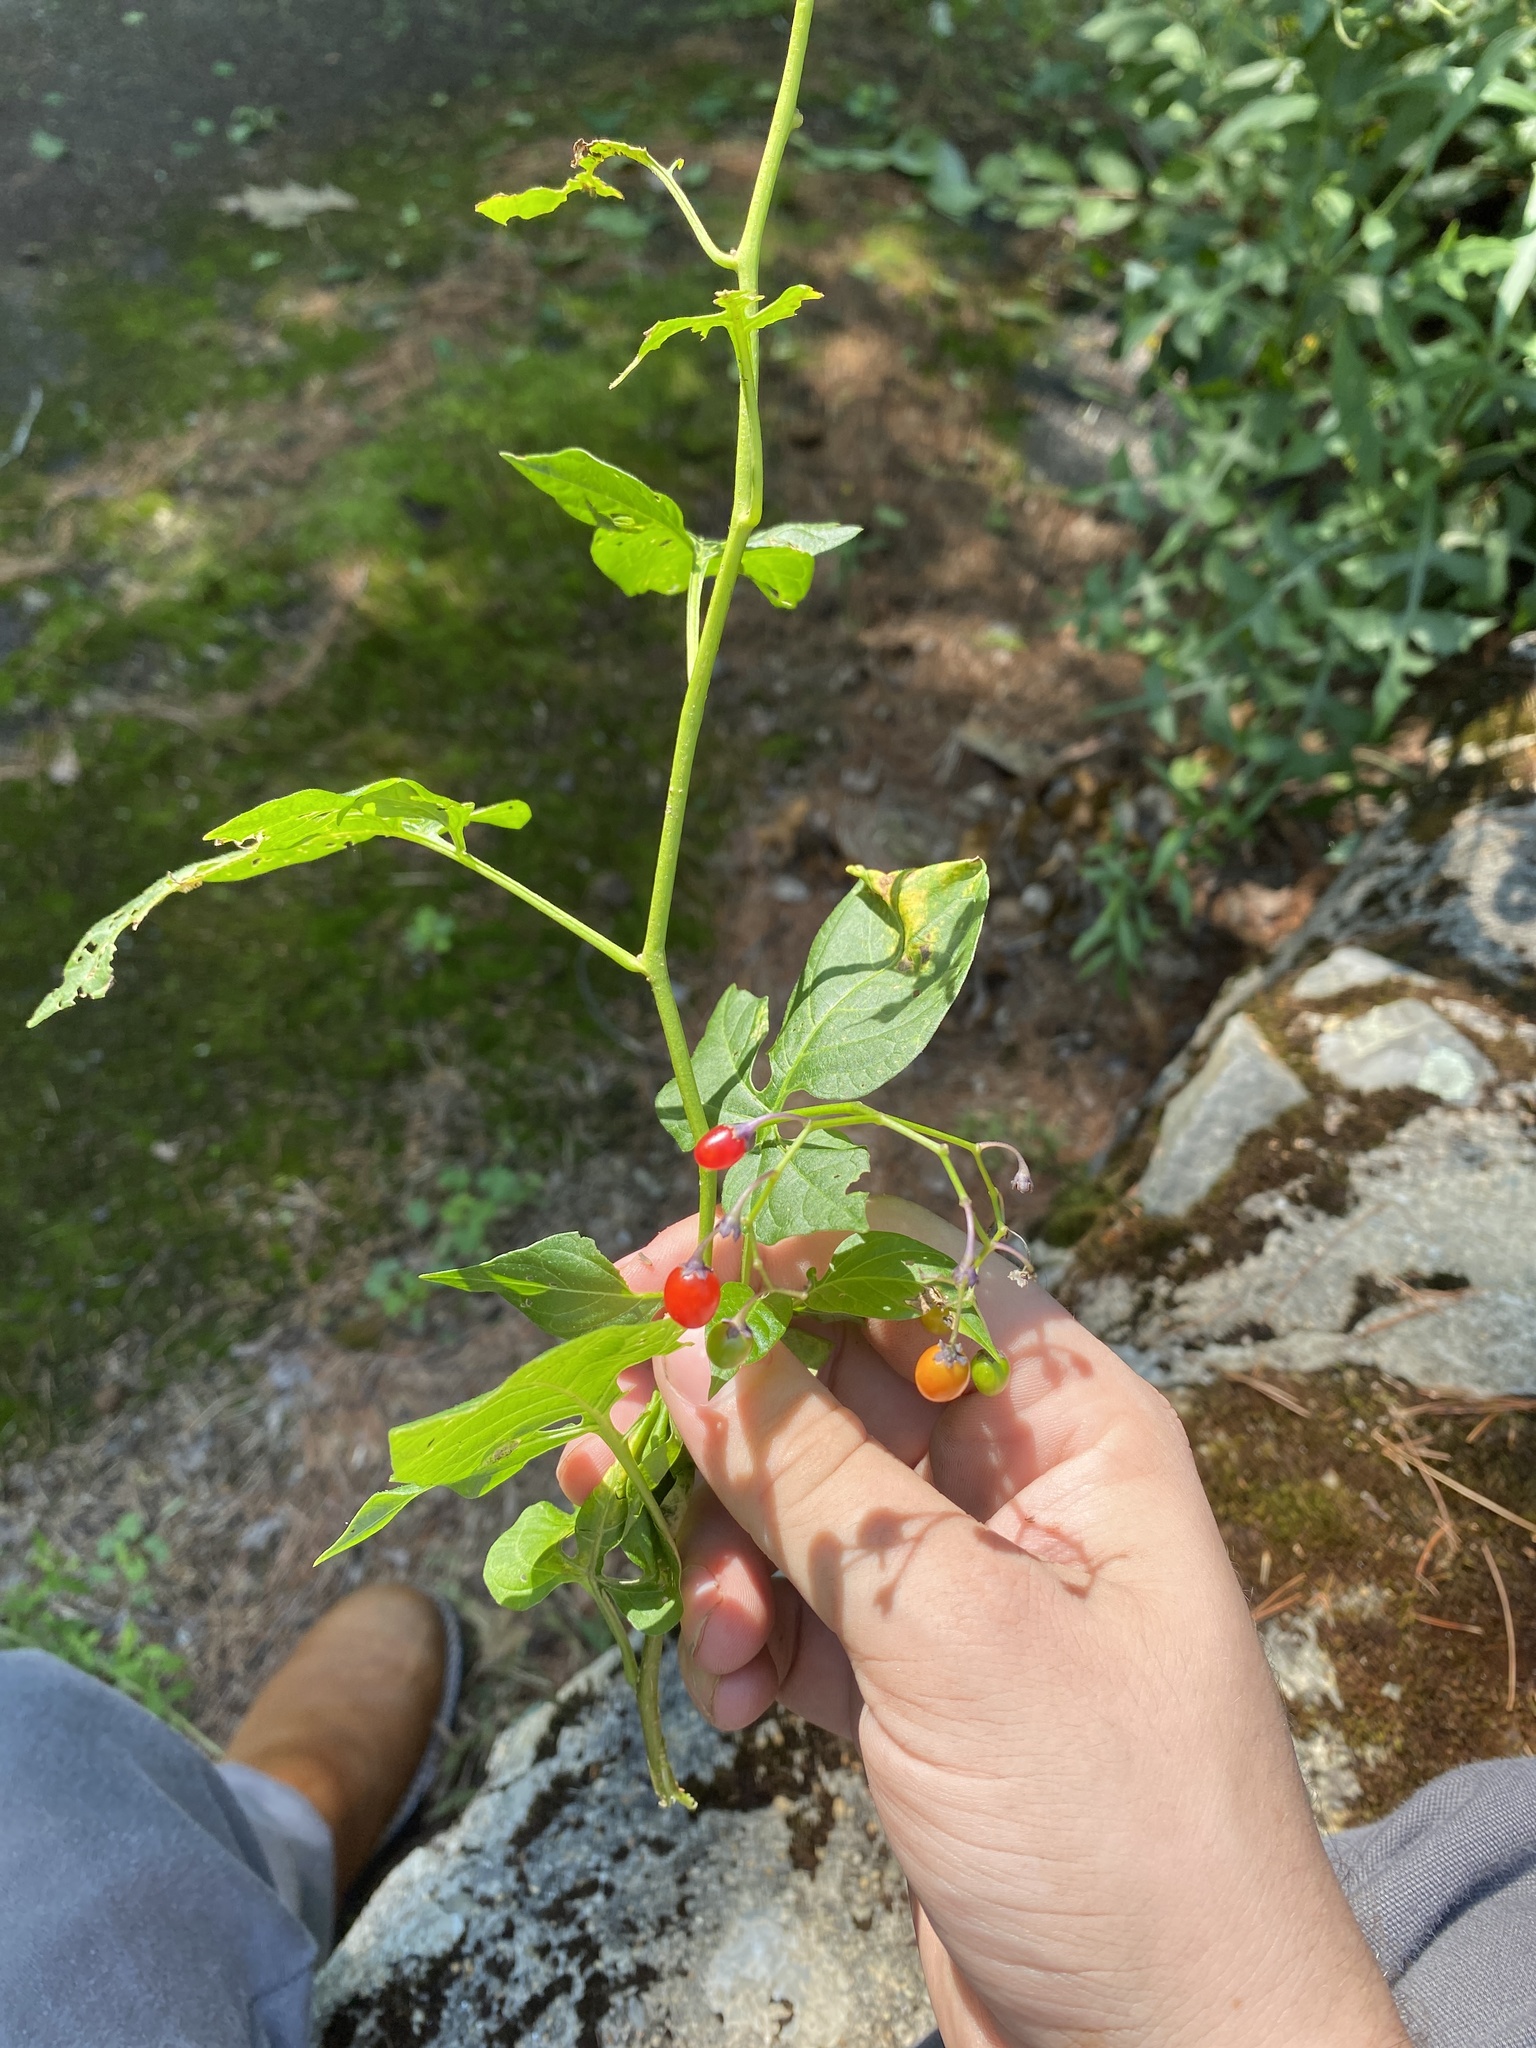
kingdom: Plantae
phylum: Tracheophyta
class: Magnoliopsida
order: Solanales
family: Solanaceae
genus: Solanum
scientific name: Solanum dulcamara
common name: Climbing nightshade
